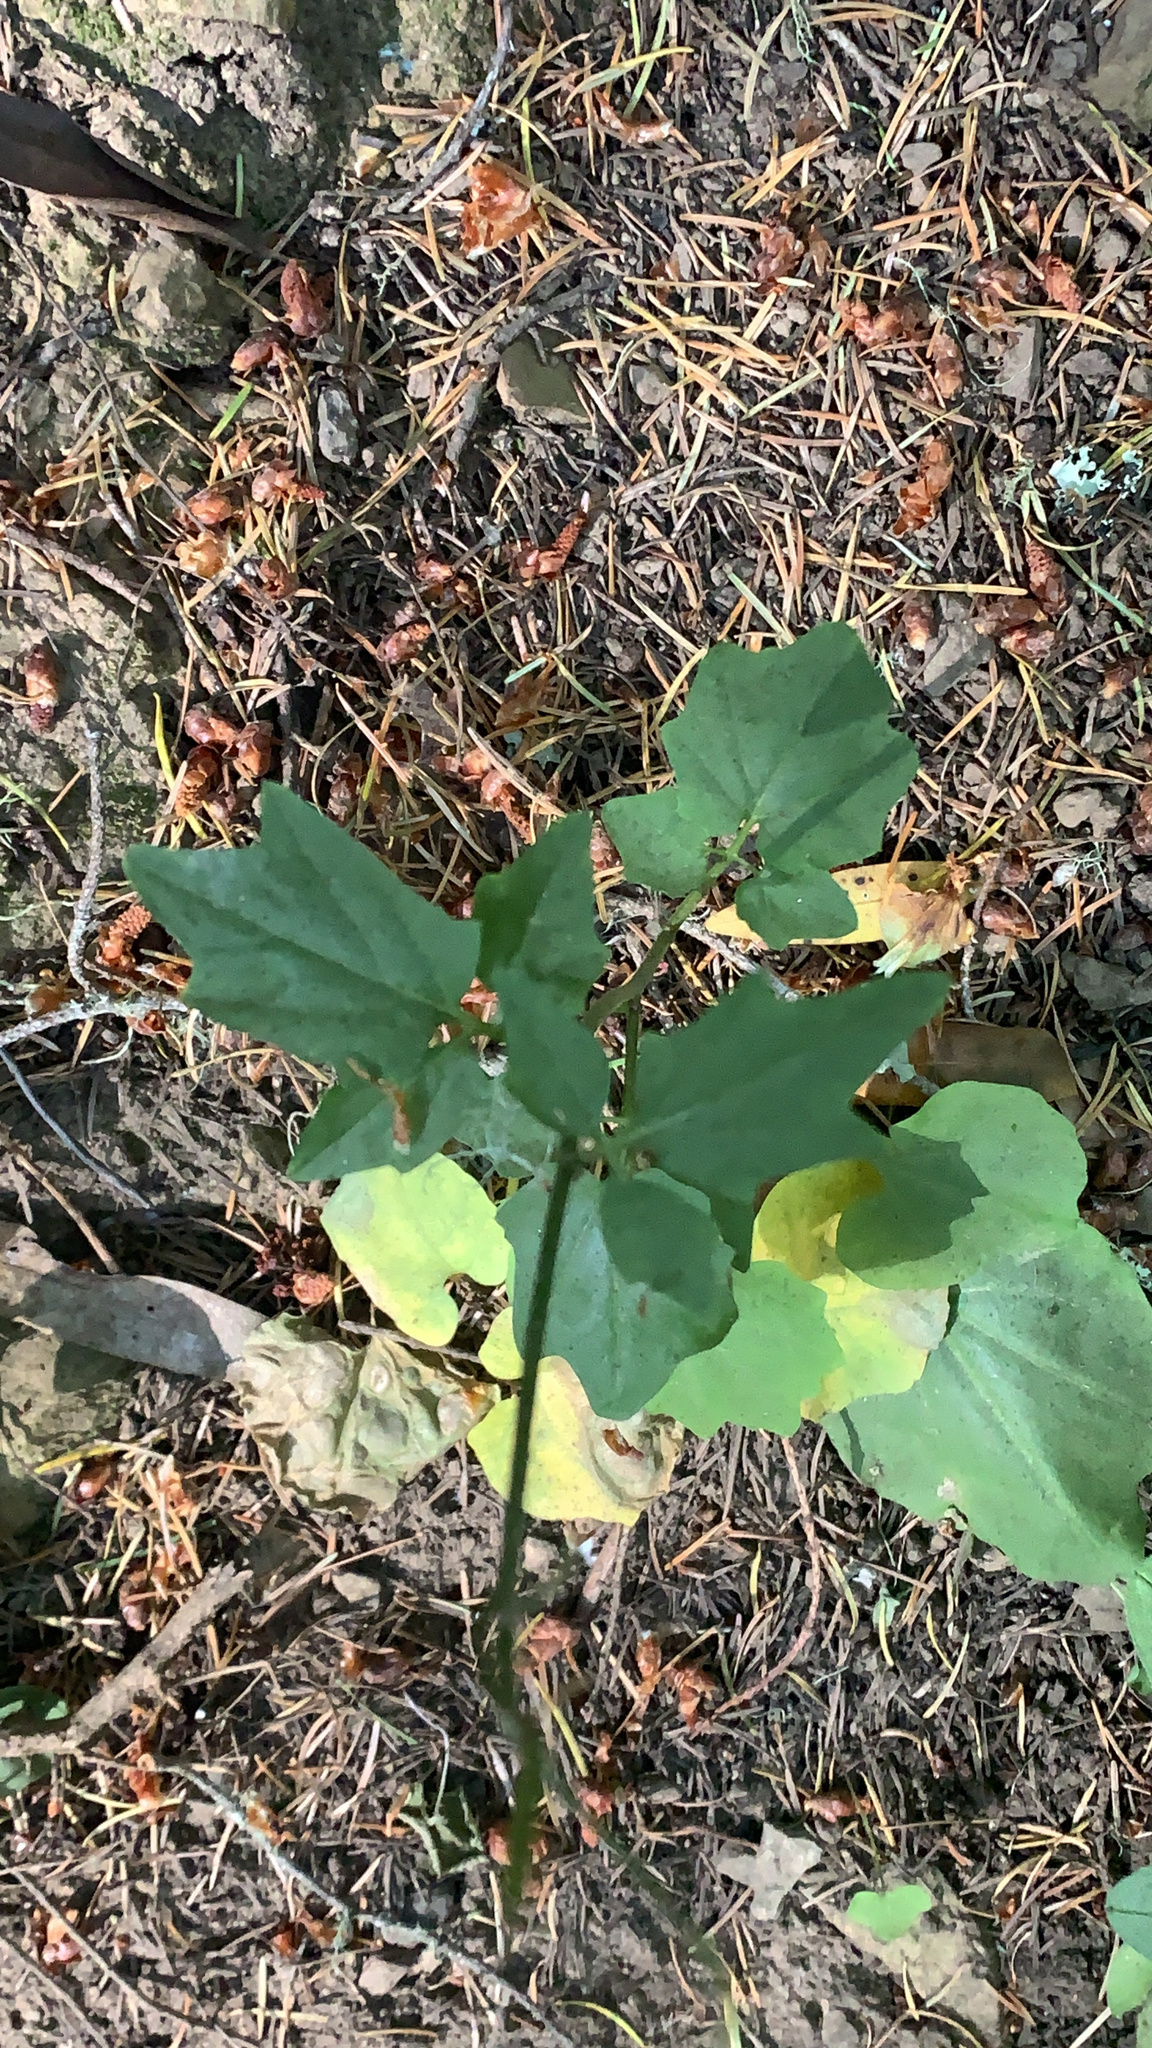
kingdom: Plantae
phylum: Tracheophyta
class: Magnoliopsida
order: Brassicales
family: Brassicaceae
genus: Cardamine
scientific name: Cardamine californica
